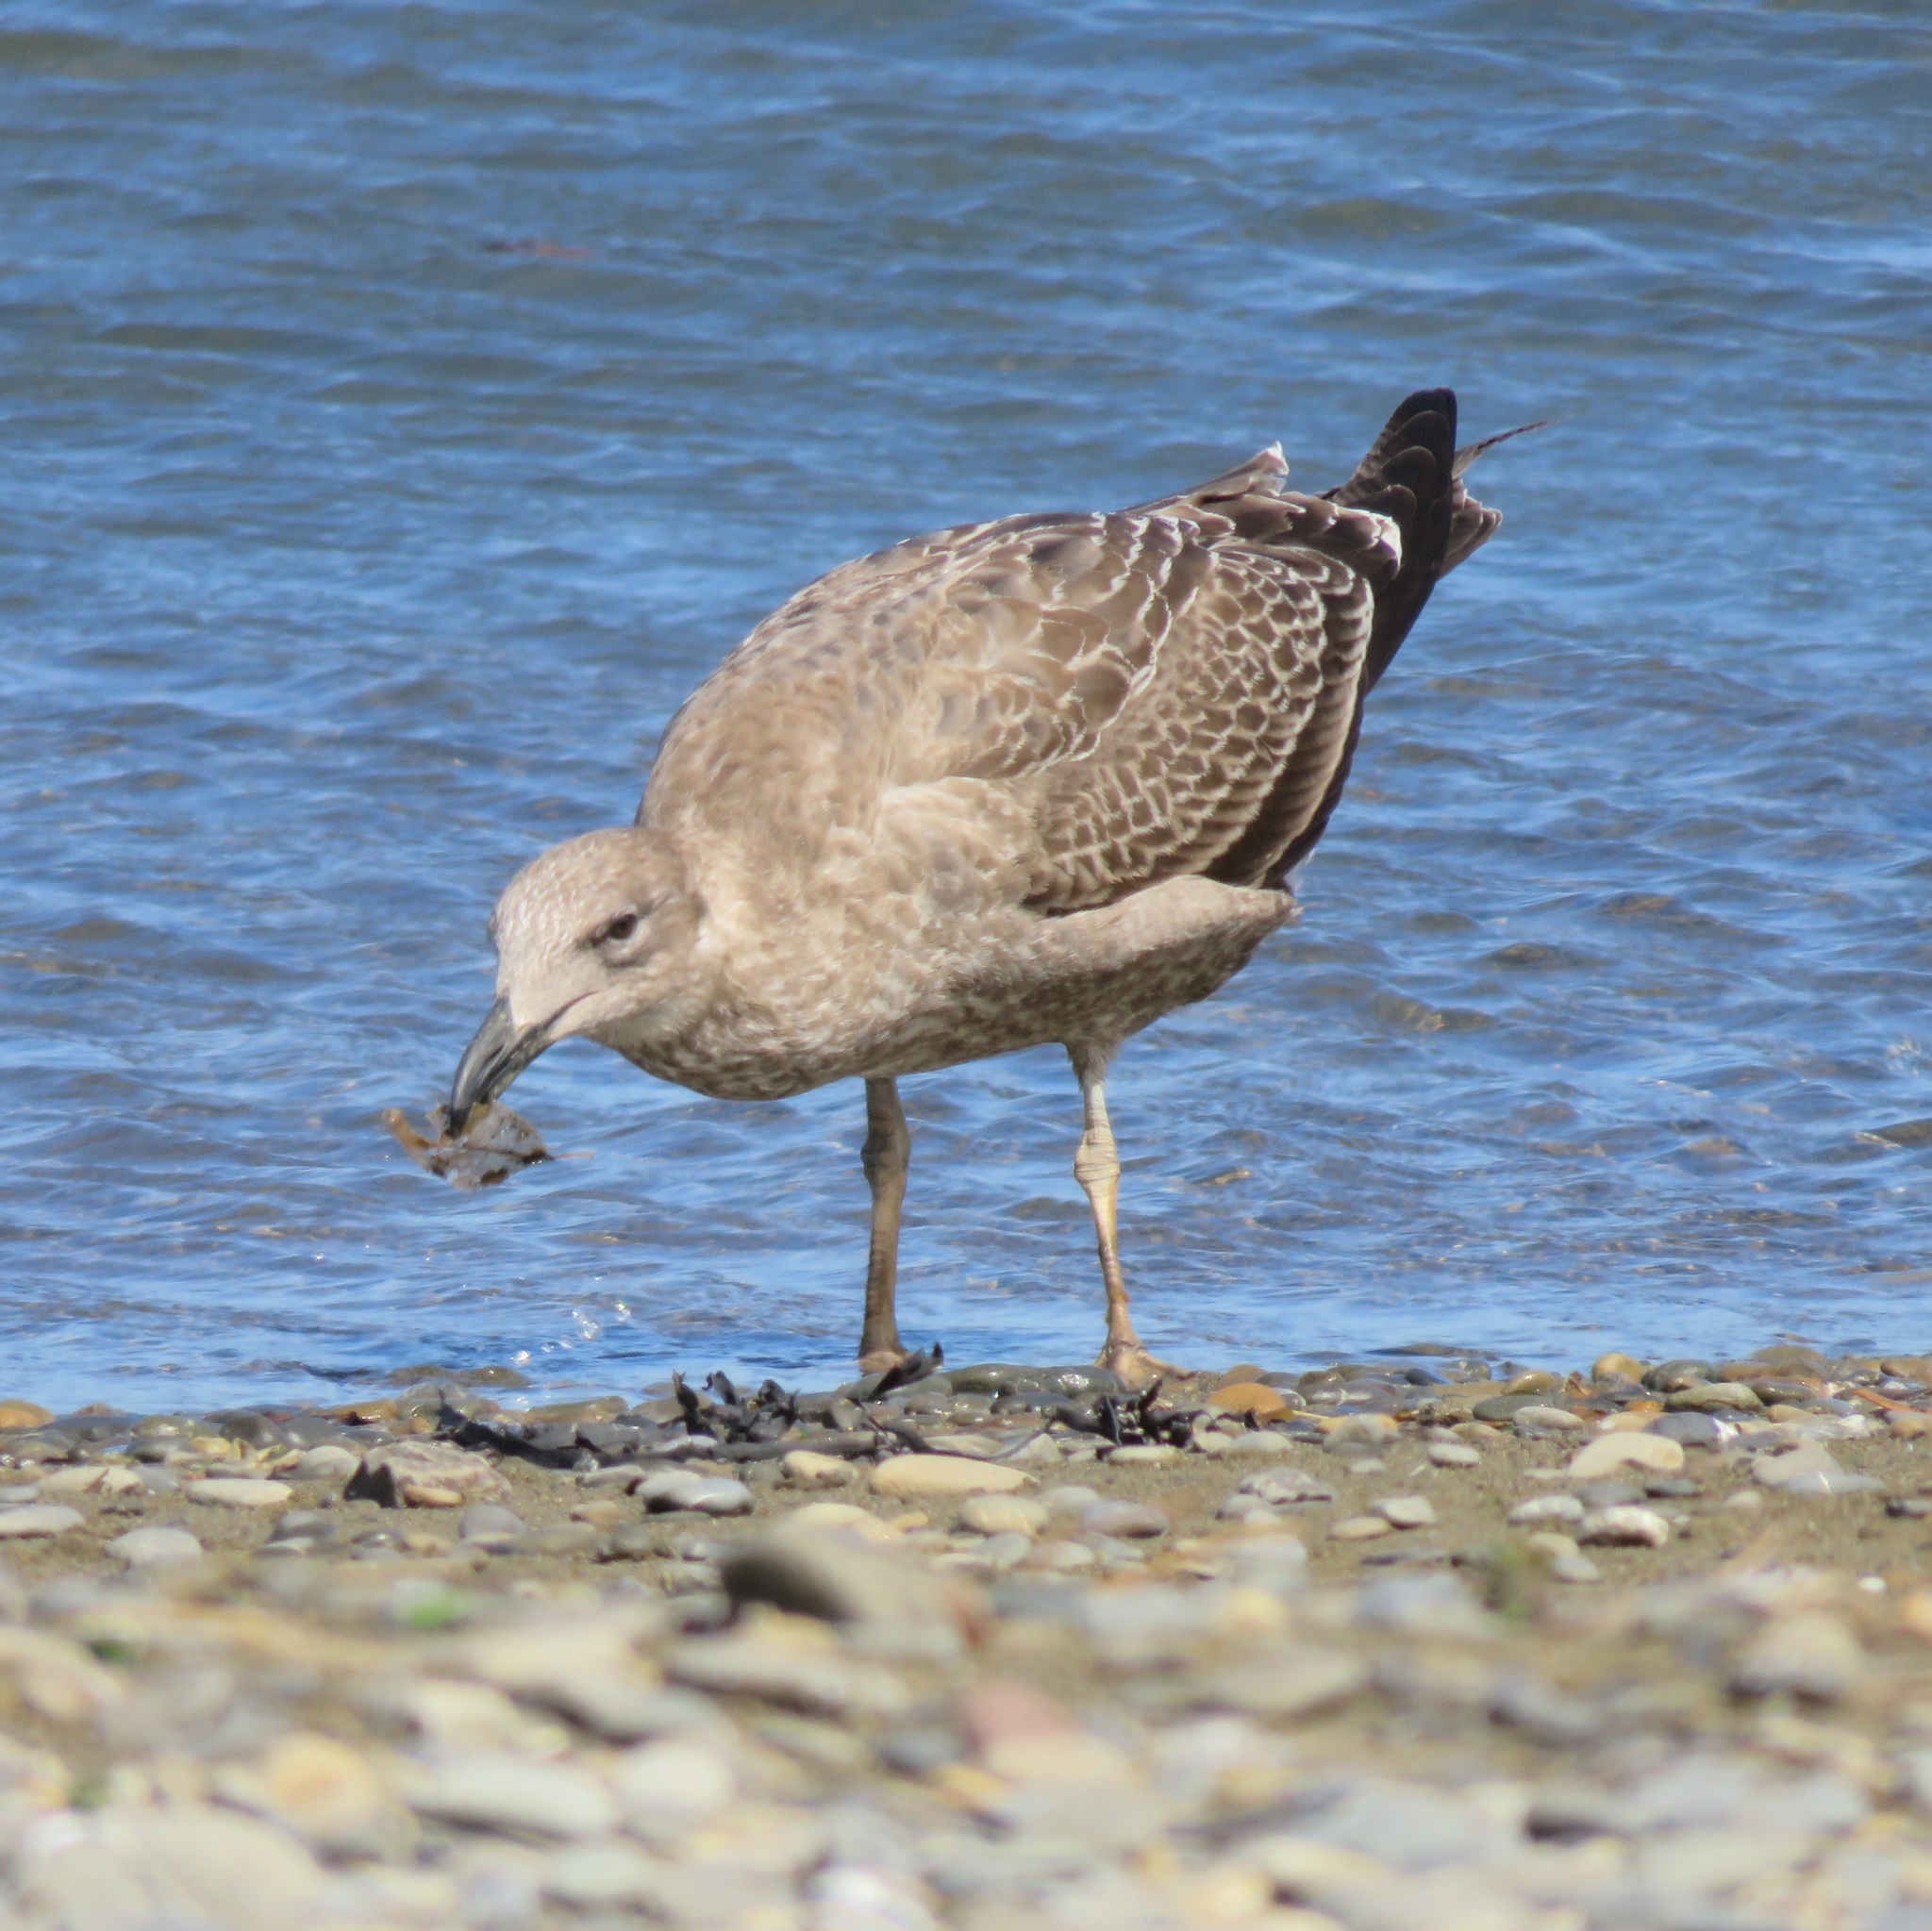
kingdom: Animalia
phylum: Chordata
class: Aves
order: Charadriiformes
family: Laridae
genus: Larus
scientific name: Larus dominicanus
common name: Kelp gull
